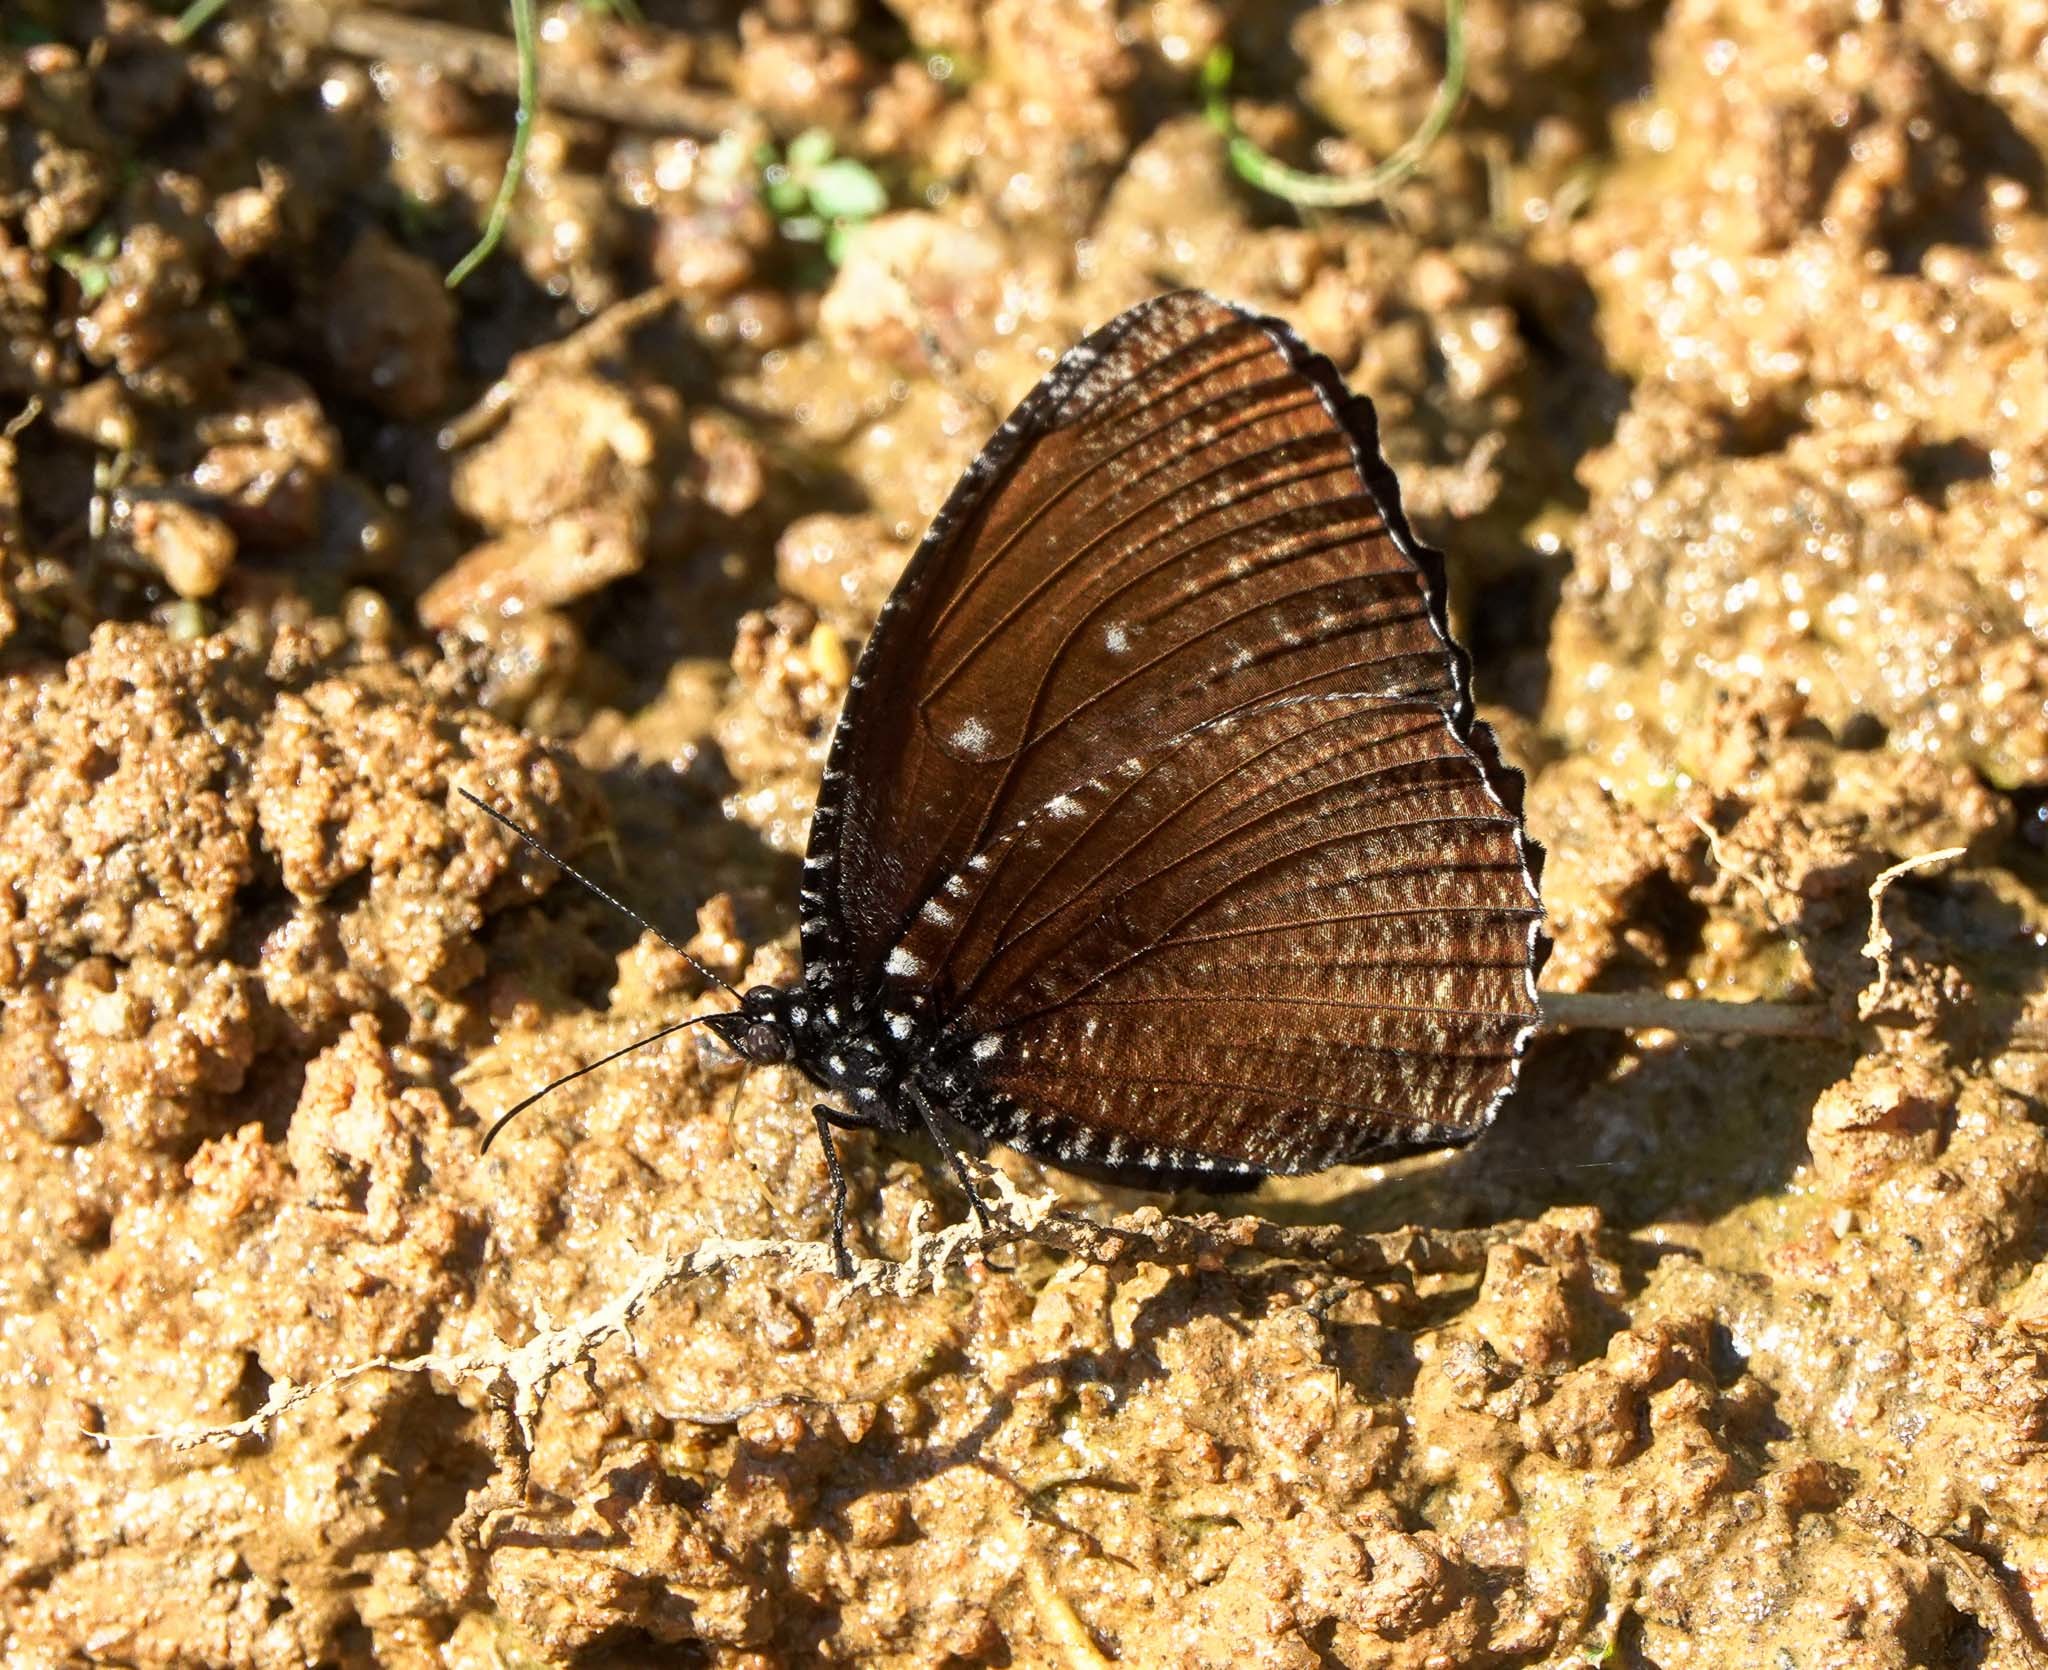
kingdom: Animalia
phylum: Arthropoda
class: Insecta
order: Lepidoptera
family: Nymphalidae
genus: Elymnias
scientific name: Elymnias malelas
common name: Spotted palmfly
